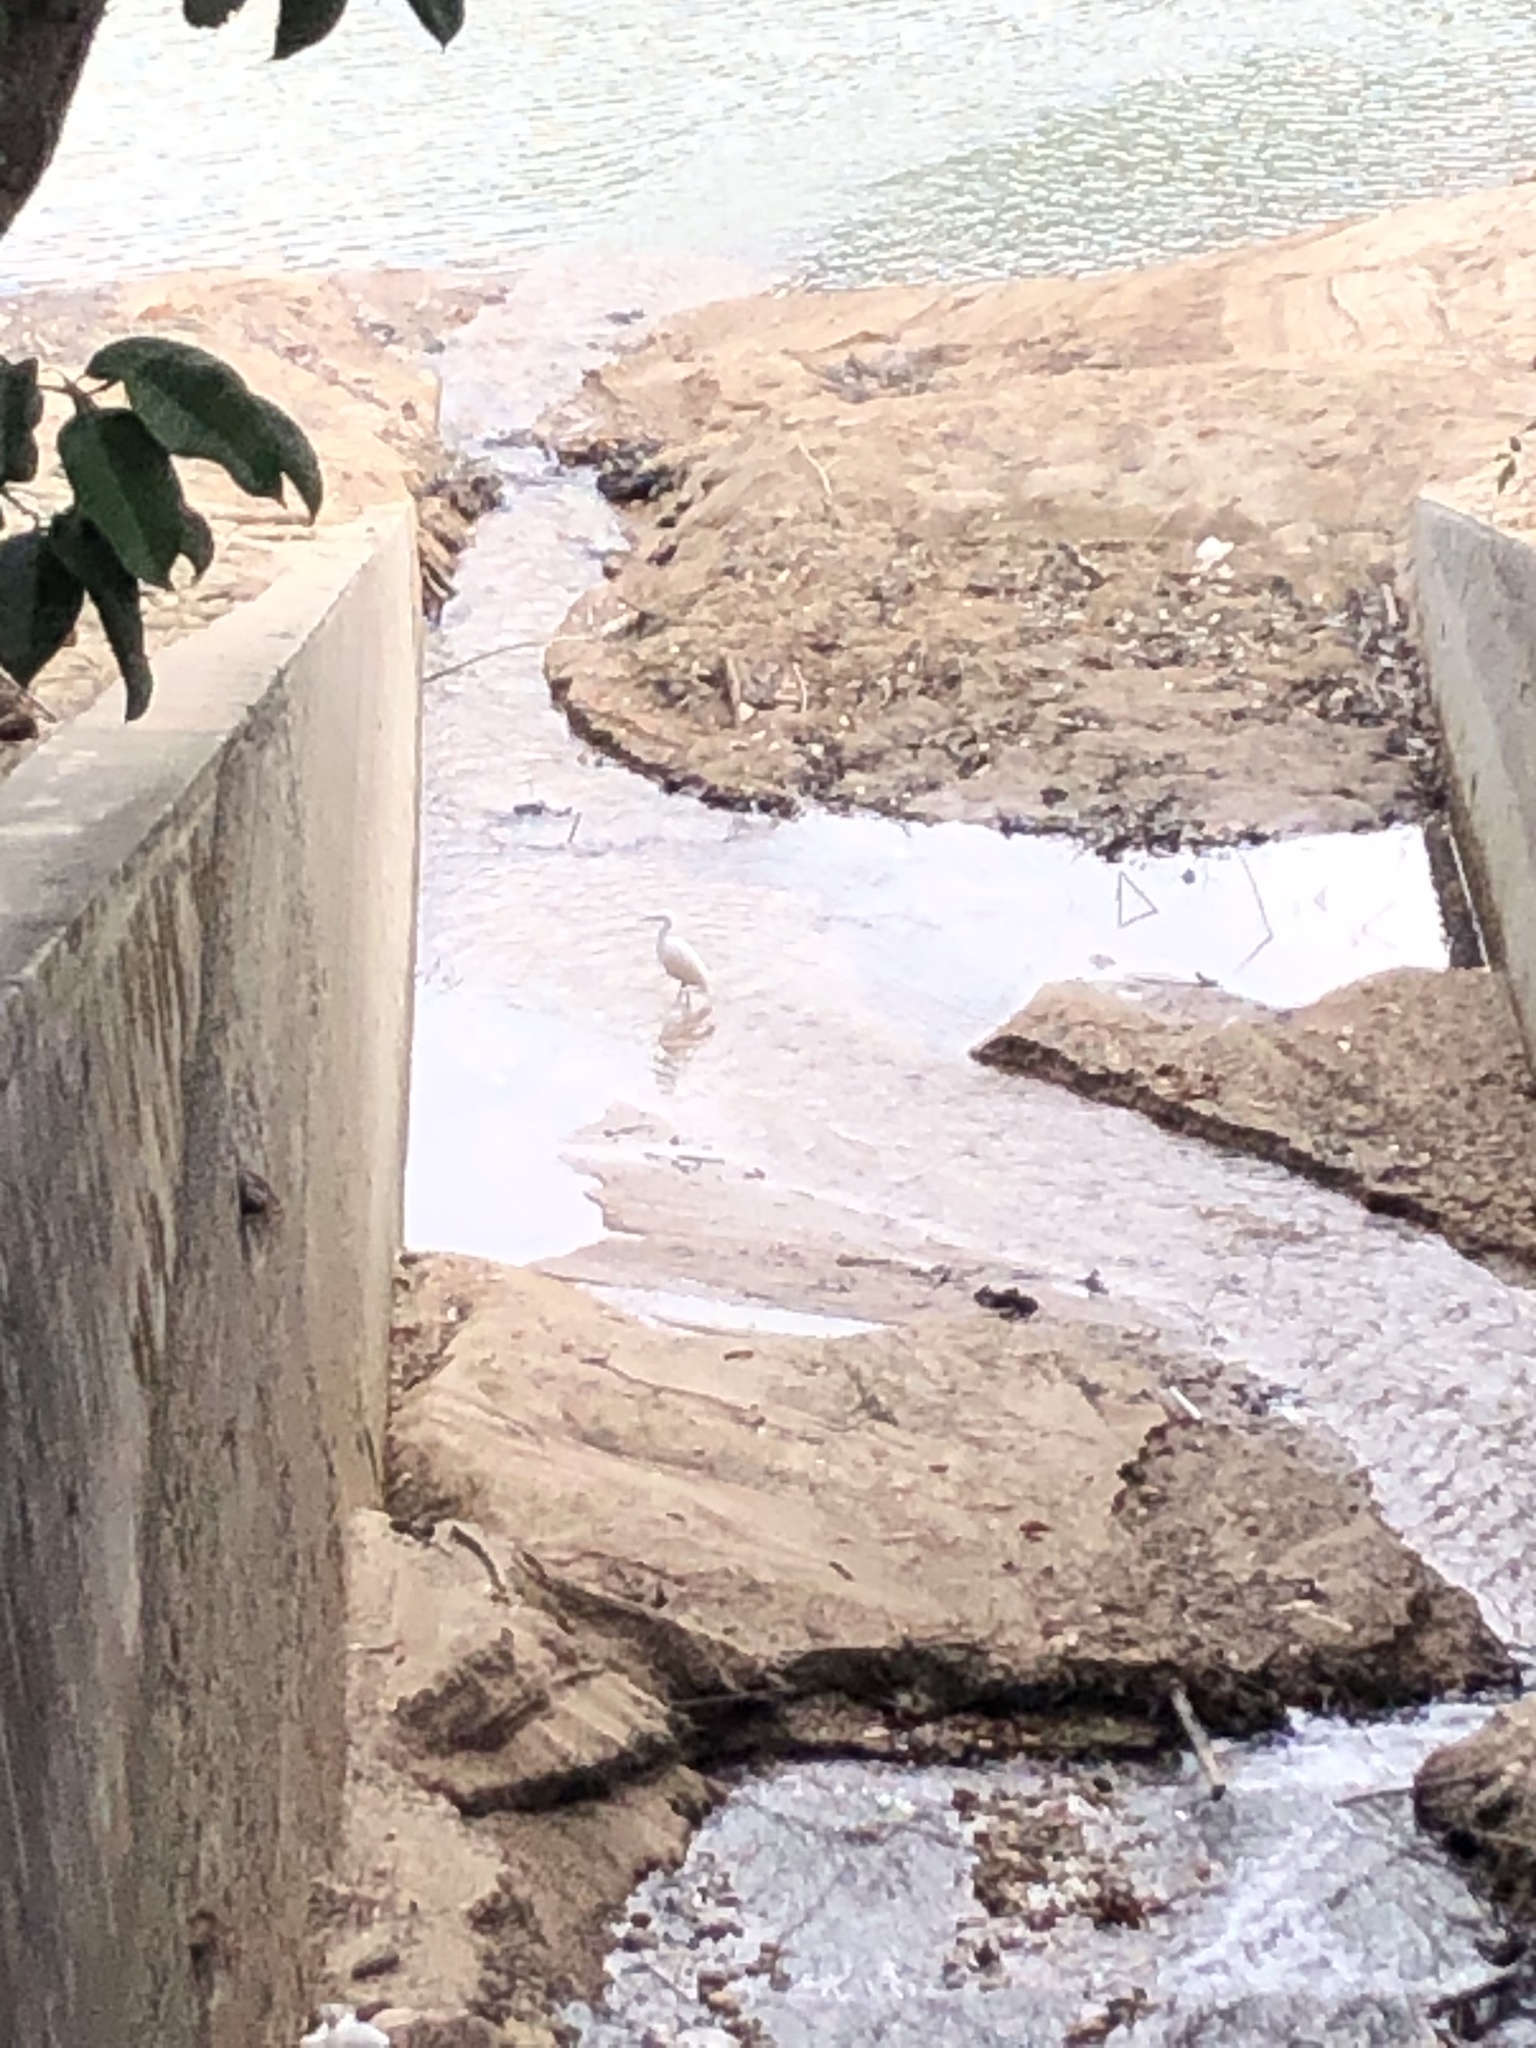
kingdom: Animalia
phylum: Chordata
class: Aves
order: Pelecaniformes
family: Ardeidae
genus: Egretta
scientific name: Egretta garzetta
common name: Little egret
